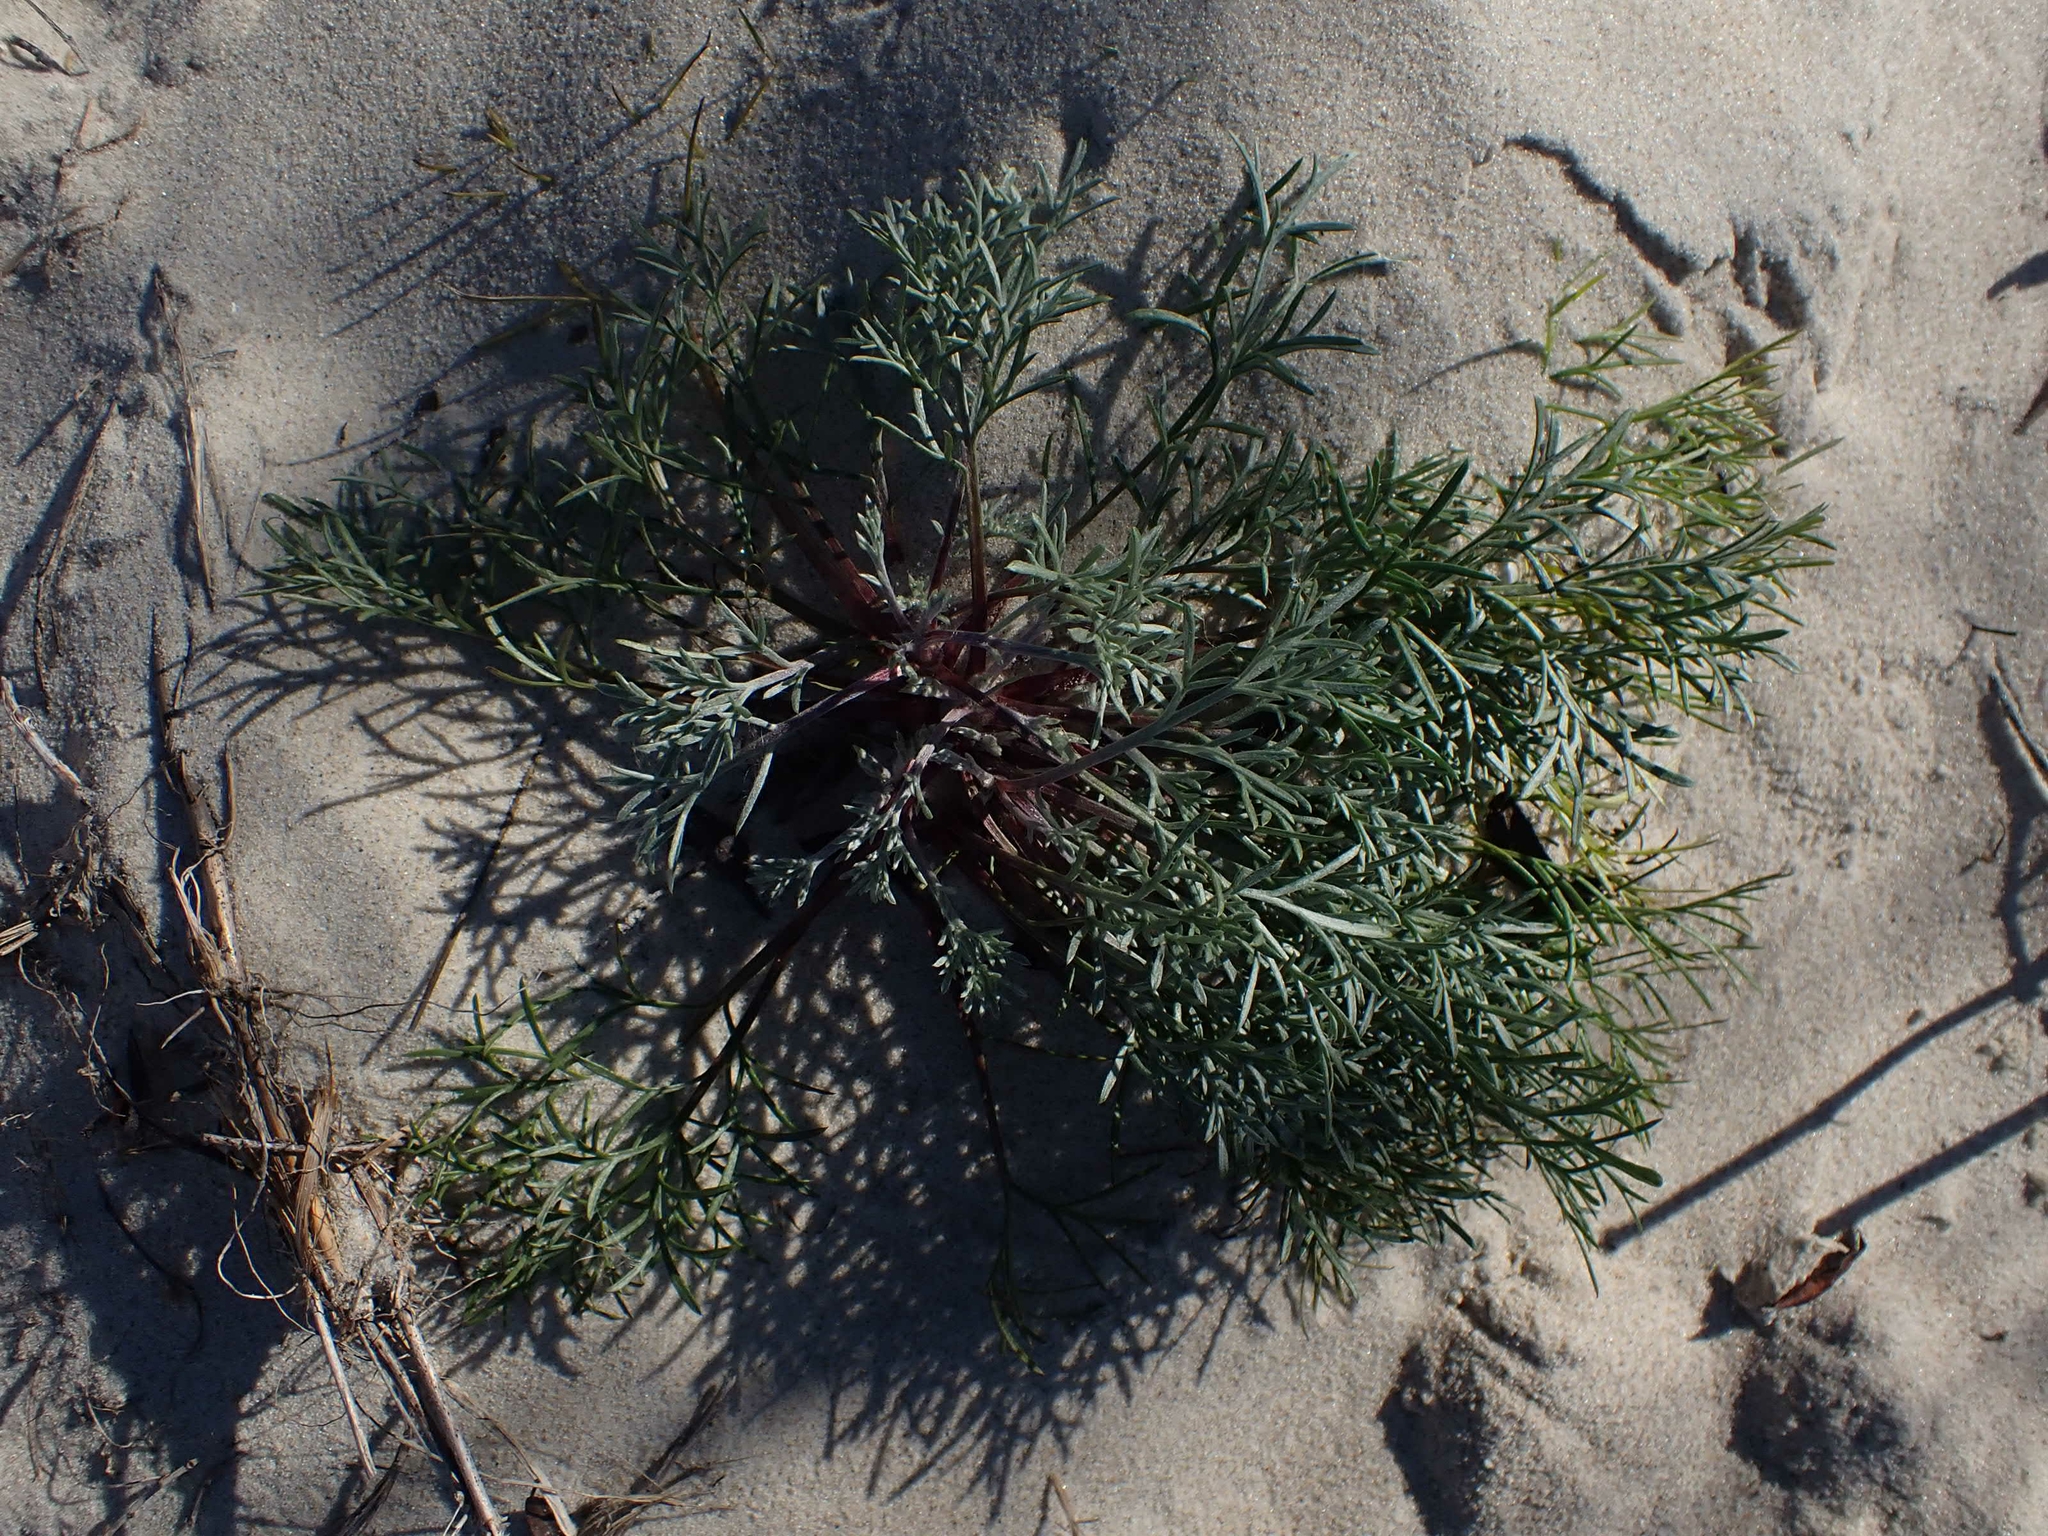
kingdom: Plantae
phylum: Tracheophyta
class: Magnoliopsida
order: Asterales
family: Asteraceae
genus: Artemisia
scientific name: Artemisia campestris
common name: Field wormwood
